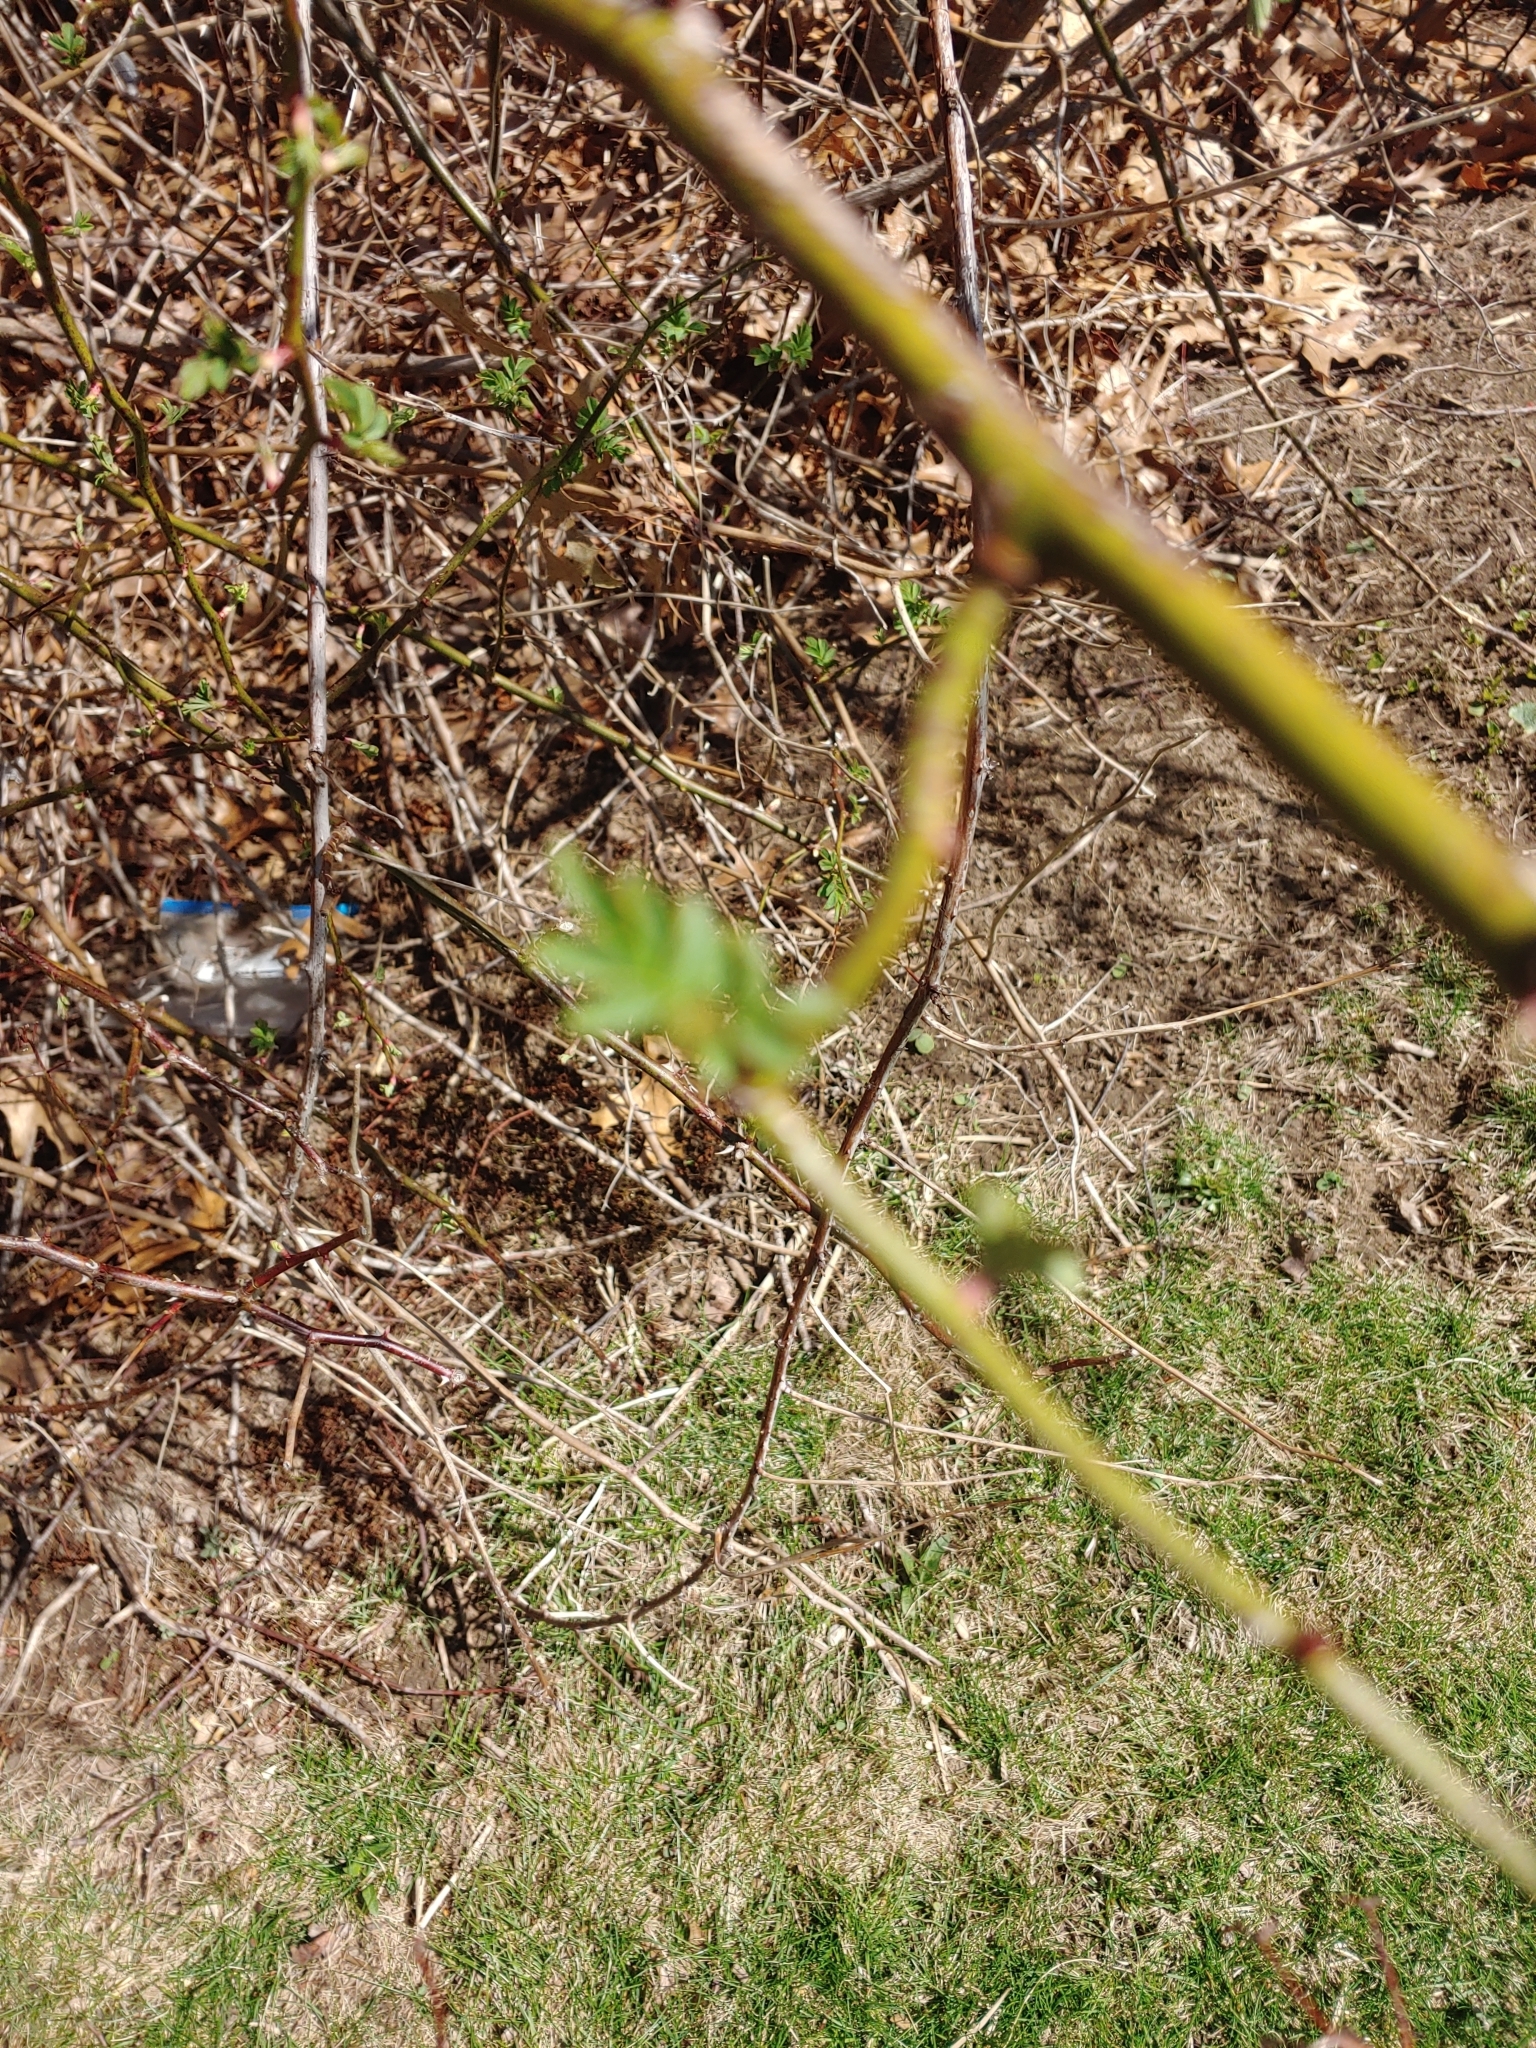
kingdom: Plantae
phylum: Tracheophyta
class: Magnoliopsida
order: Rosales
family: Rosaceae
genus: Rosa
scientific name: Rosa multiflora
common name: Multiflora rose
